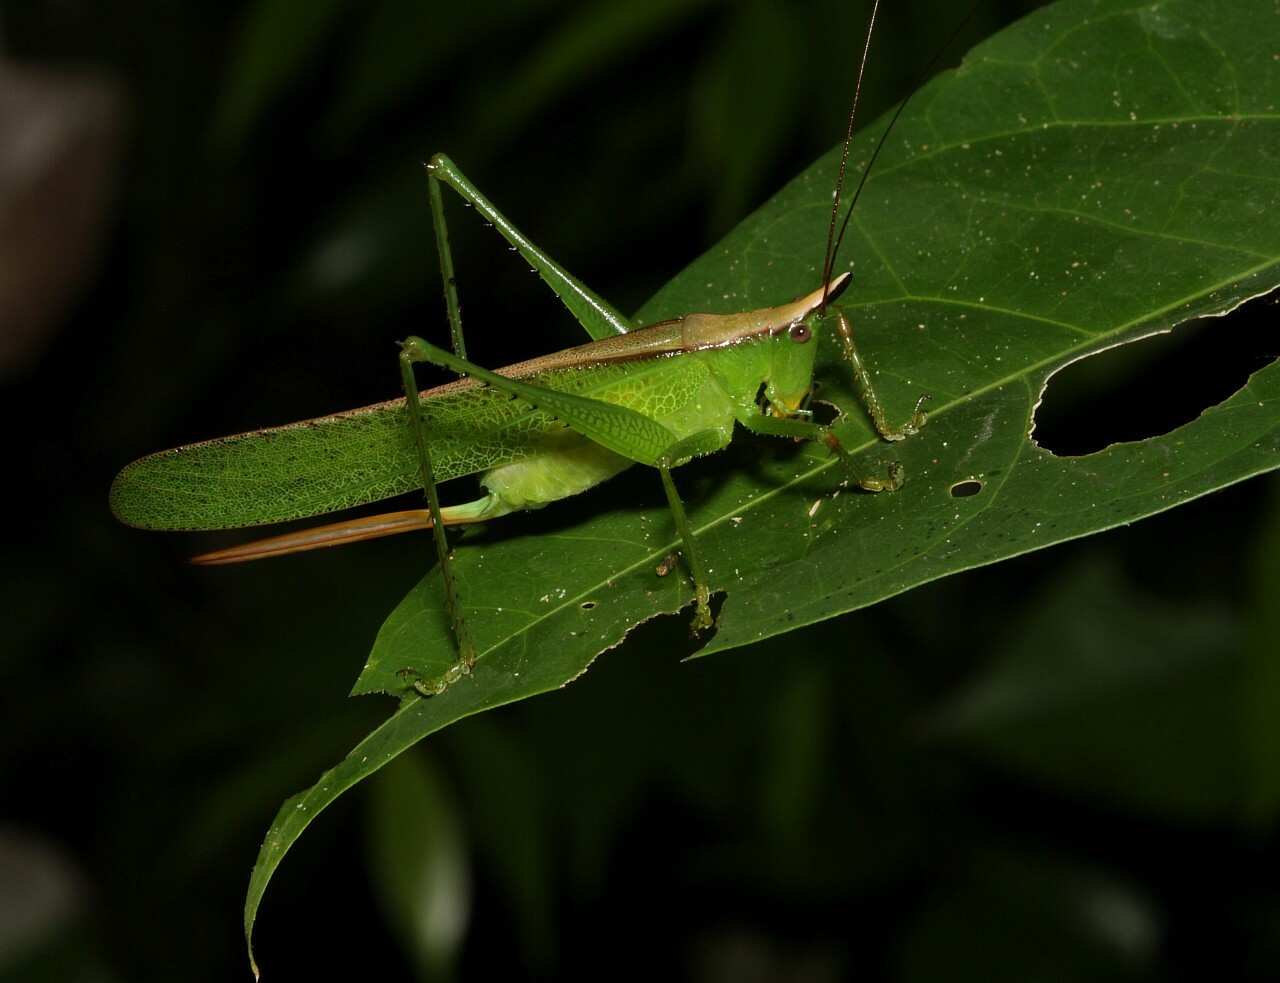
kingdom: Animalia
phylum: Arthropoda
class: Insecta
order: Orthoptera
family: Tettigoniidae
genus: Melanophoxus
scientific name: Melanophoxus brunneri
